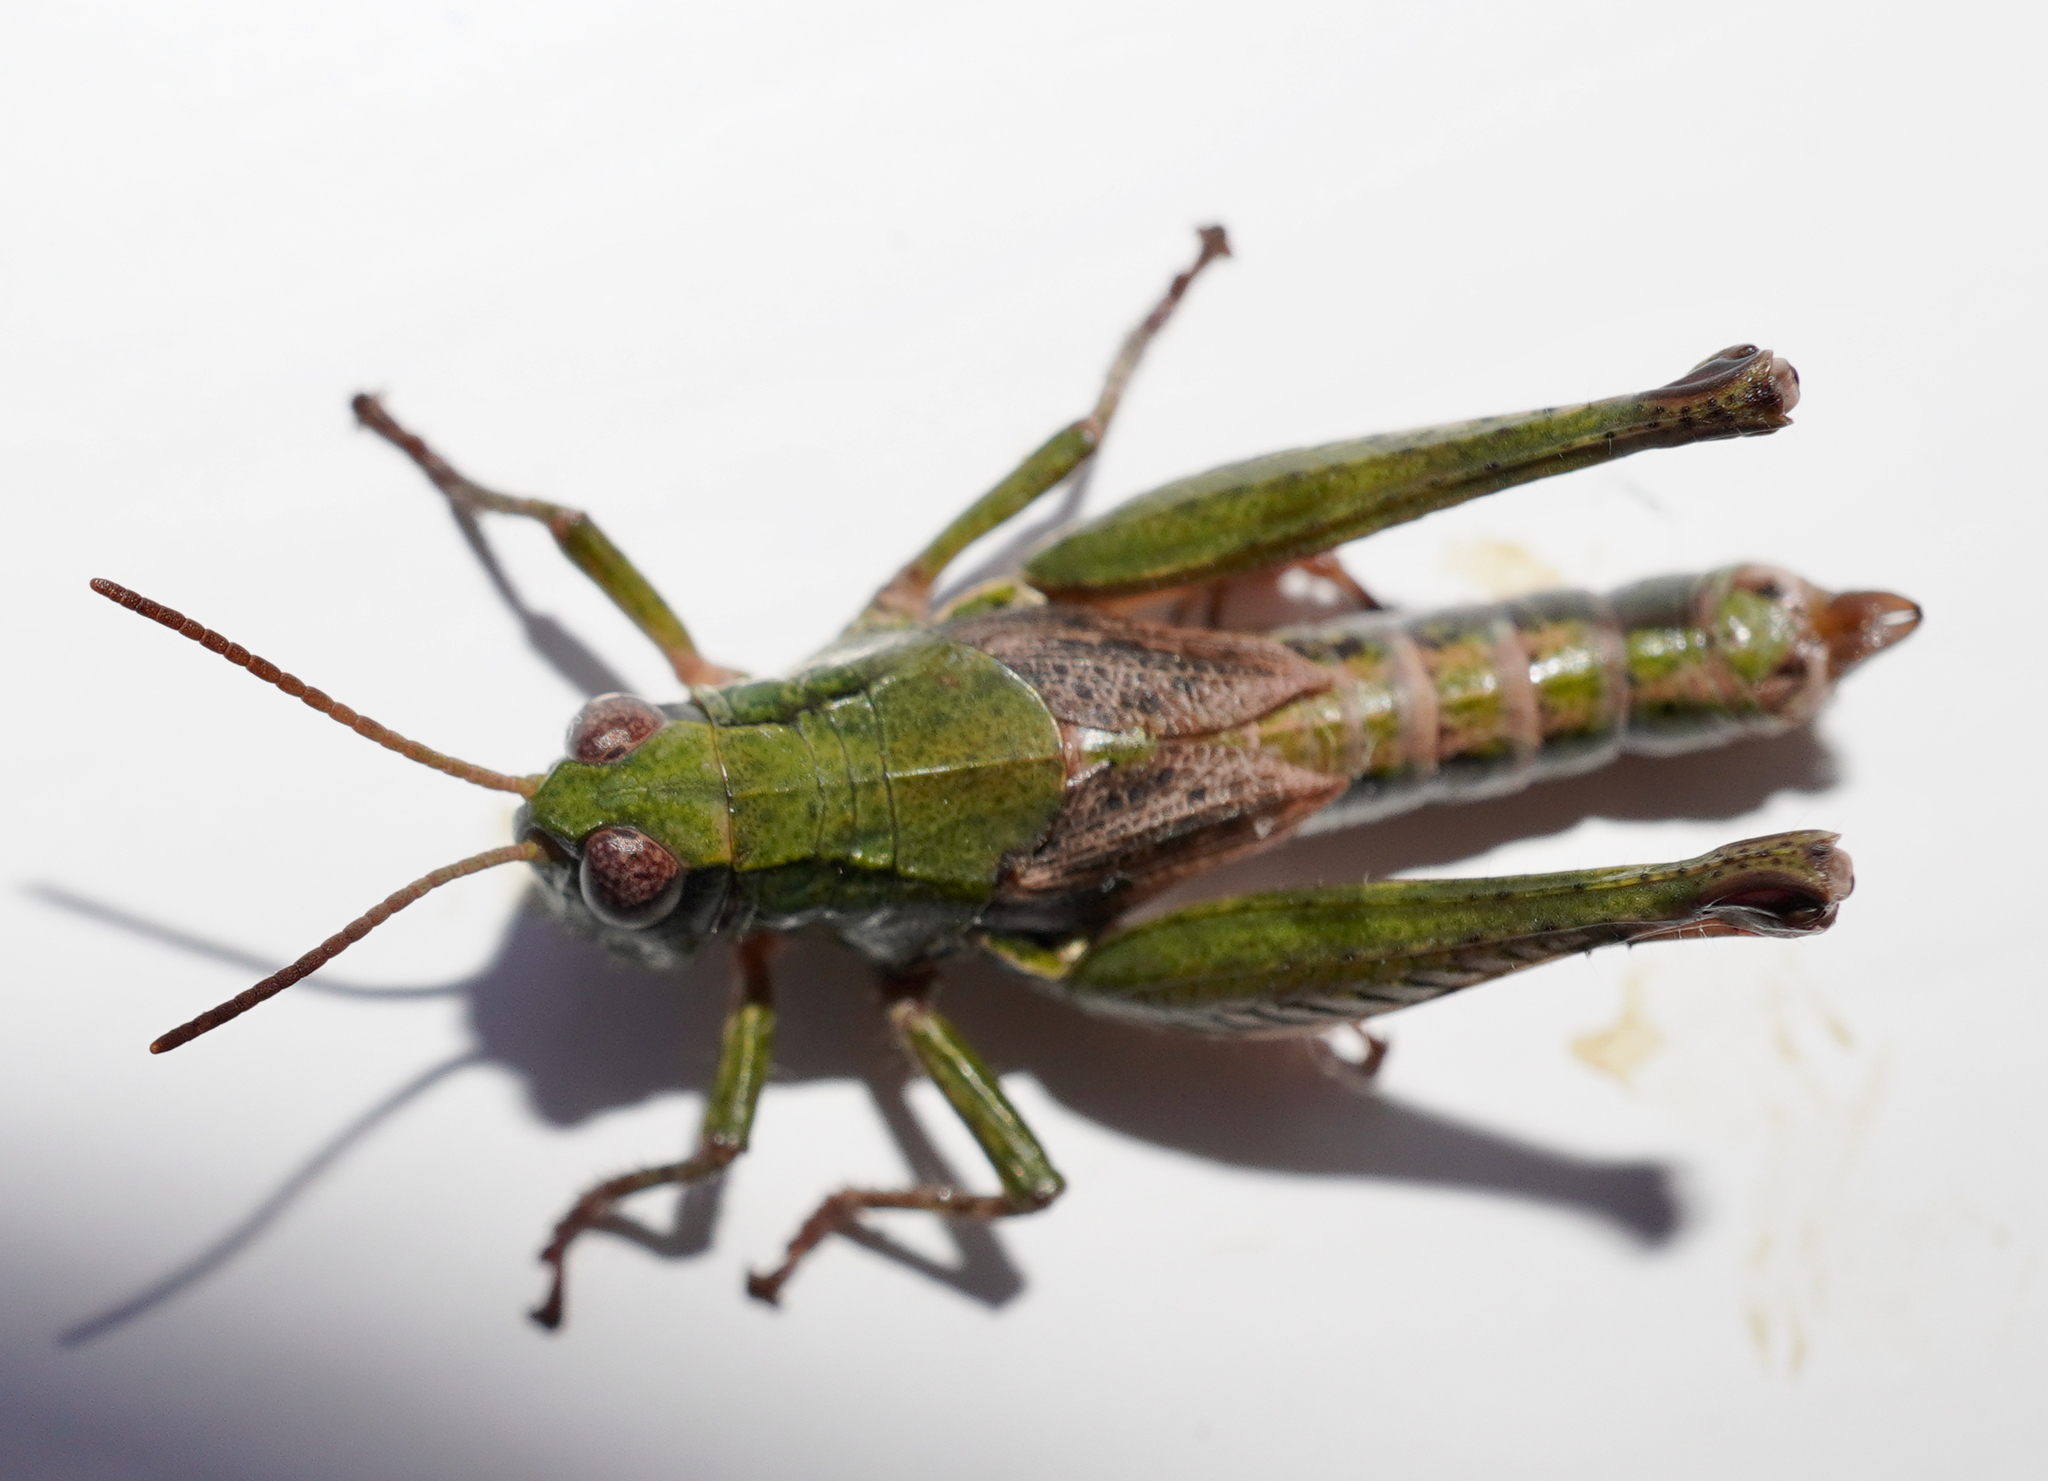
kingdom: Animalia
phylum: Arthropoda
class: Insecta
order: Orthoptera
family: Acrididae
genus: Phaulacridium
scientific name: Phaulacridium marginale
